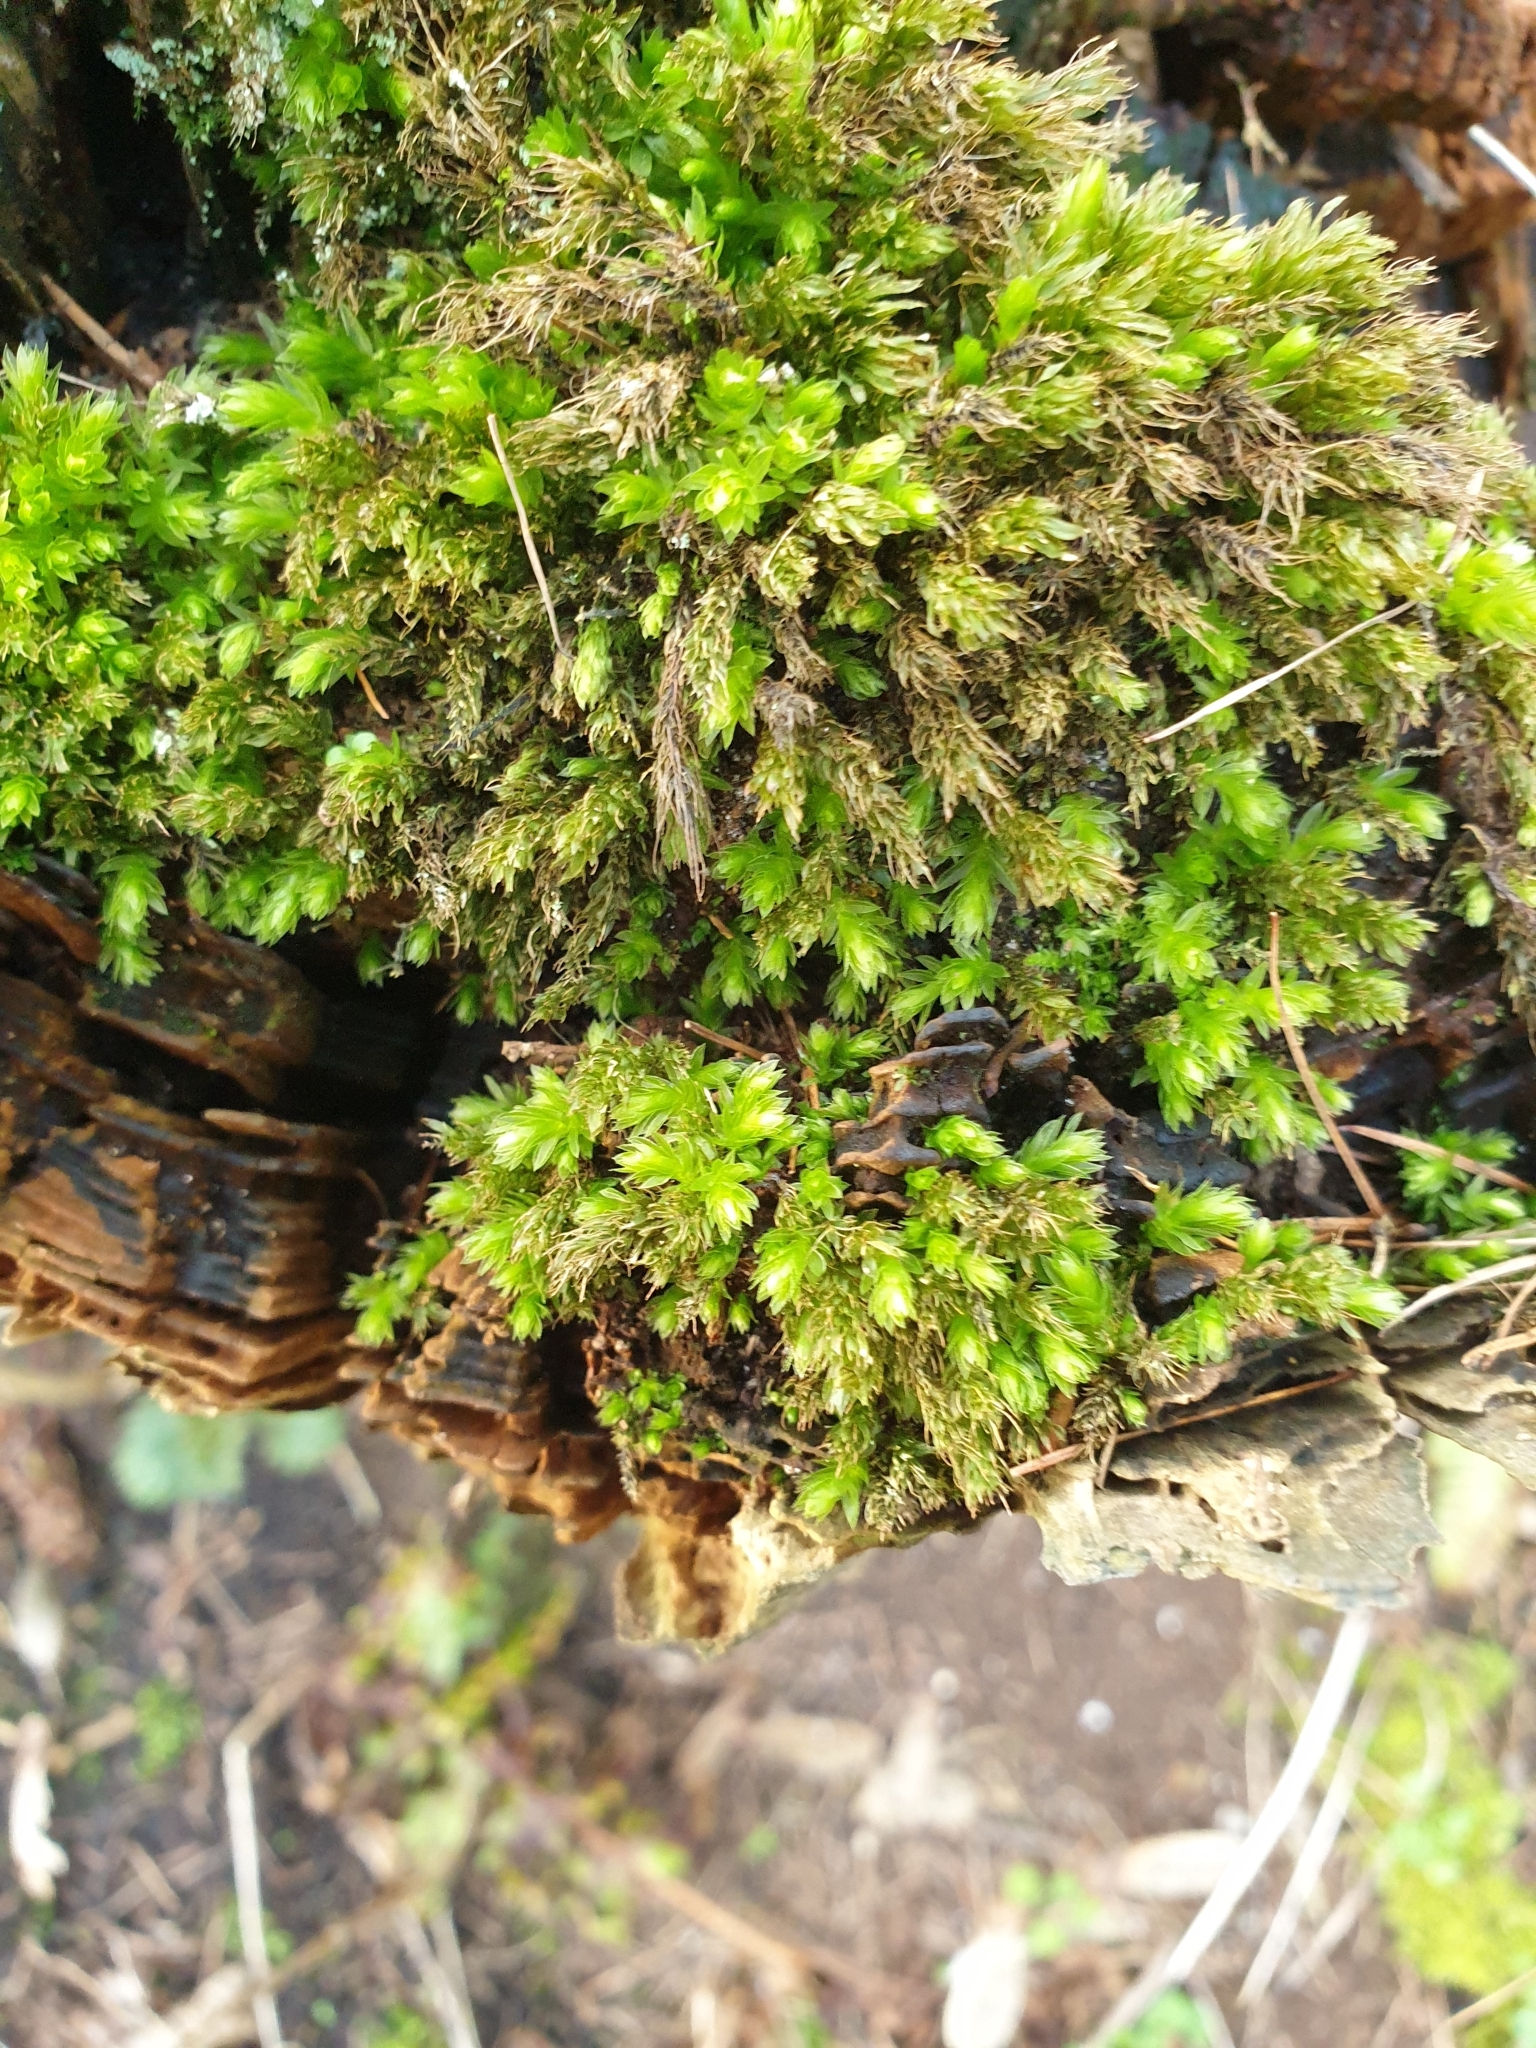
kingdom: Plantae
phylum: Bryophyta
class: Bryopsida
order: Bryales
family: Mniaceae
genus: Mnium
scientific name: Mnium hornum
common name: Swan's-neck leafy moss
